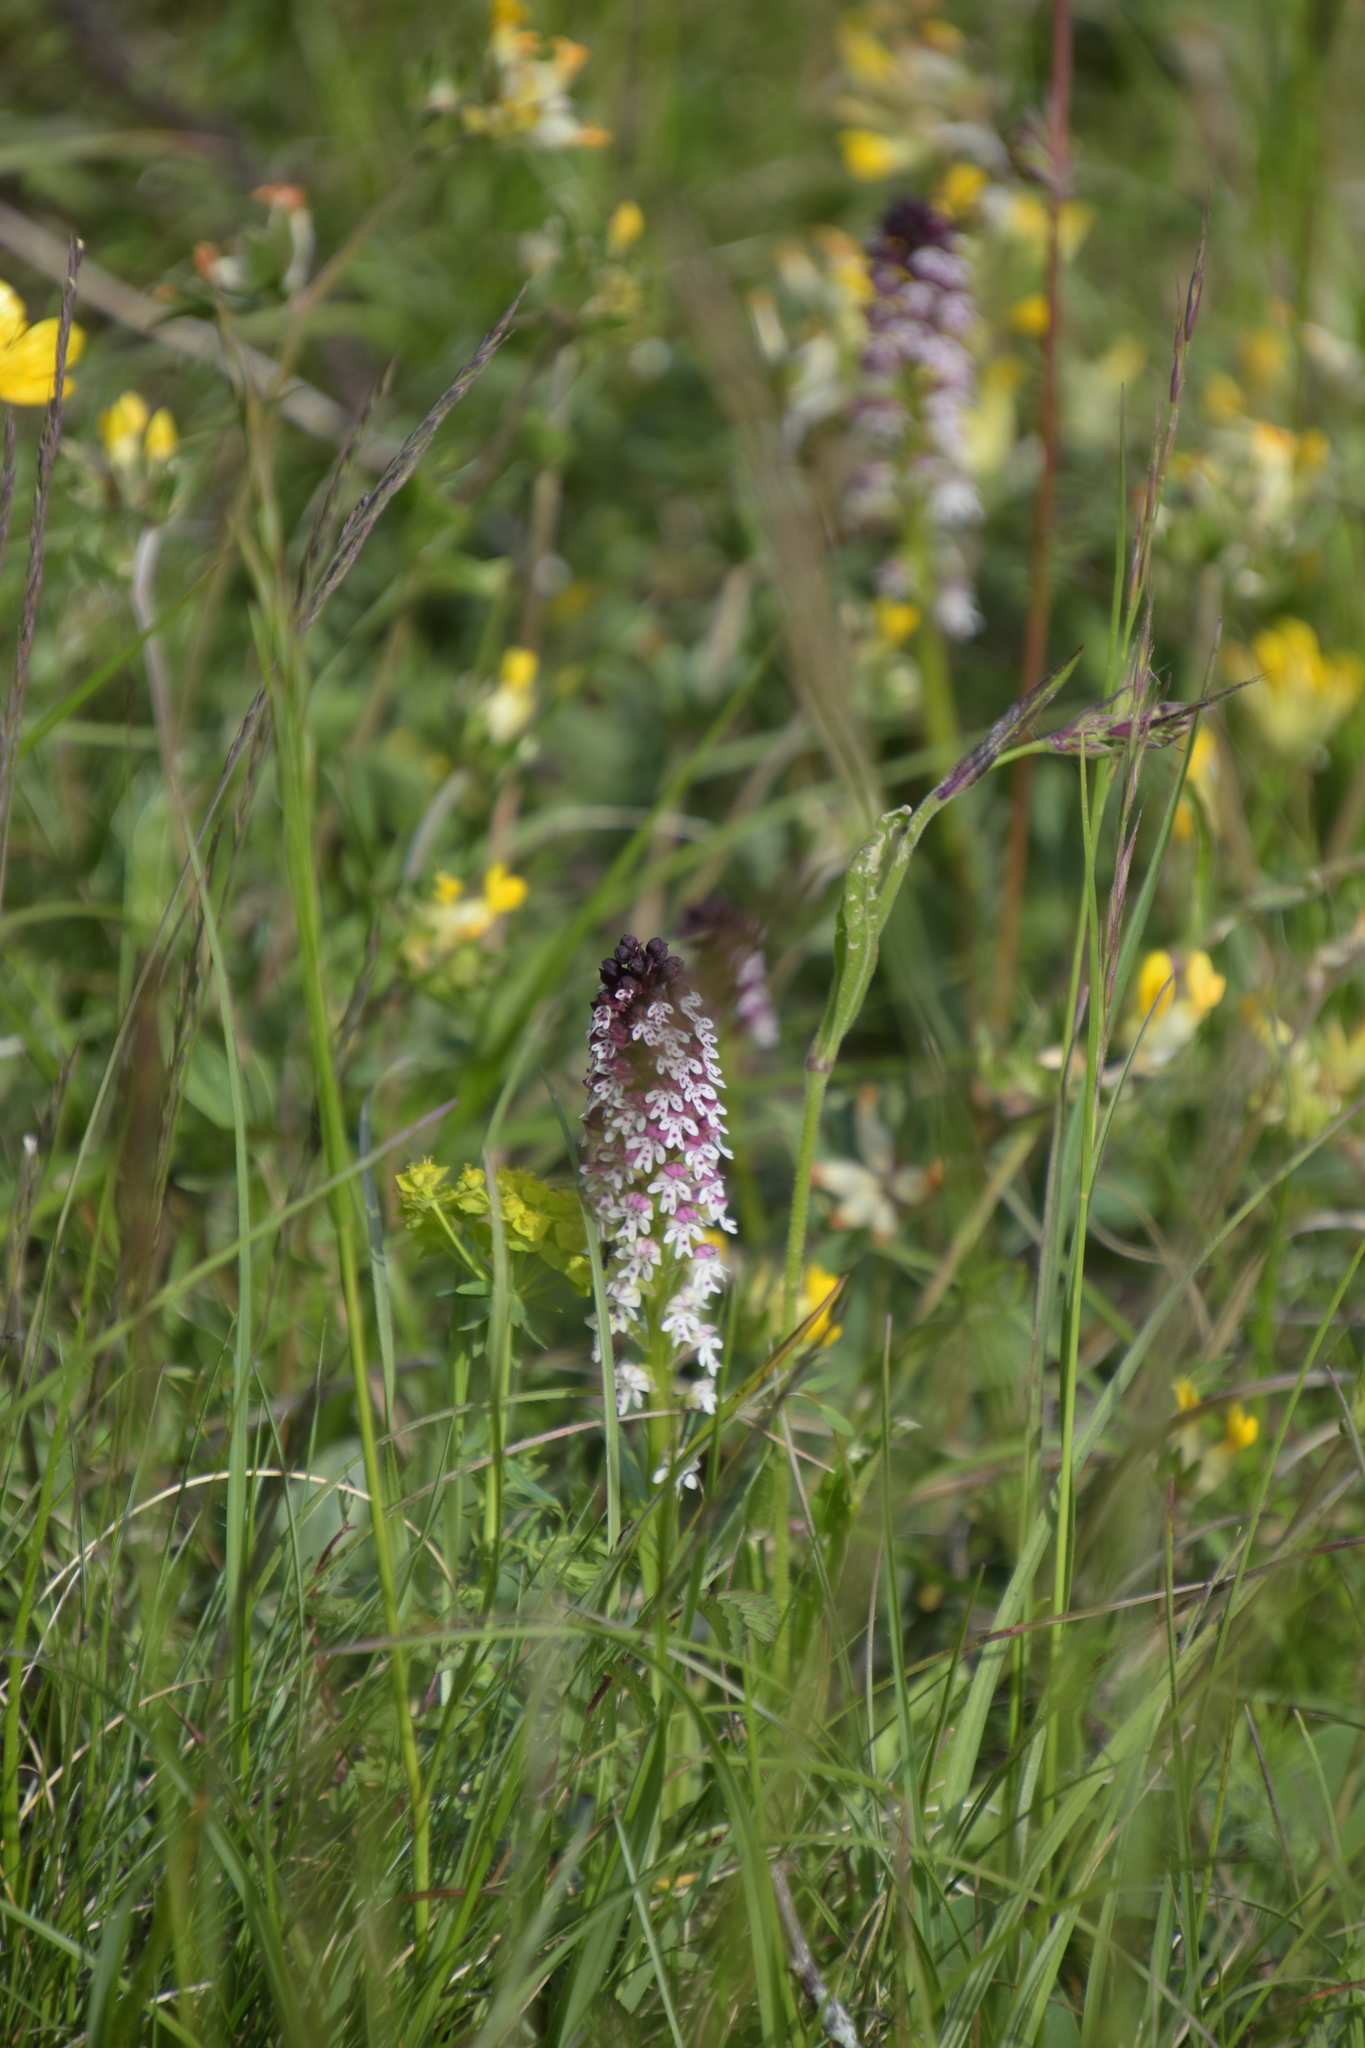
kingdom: Plantae
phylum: Tracheophyta
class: Liliopsida
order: Asparagales
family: Orchidaceae
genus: Neotinea
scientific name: Neotinea ustulata
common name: Burnt orchid
